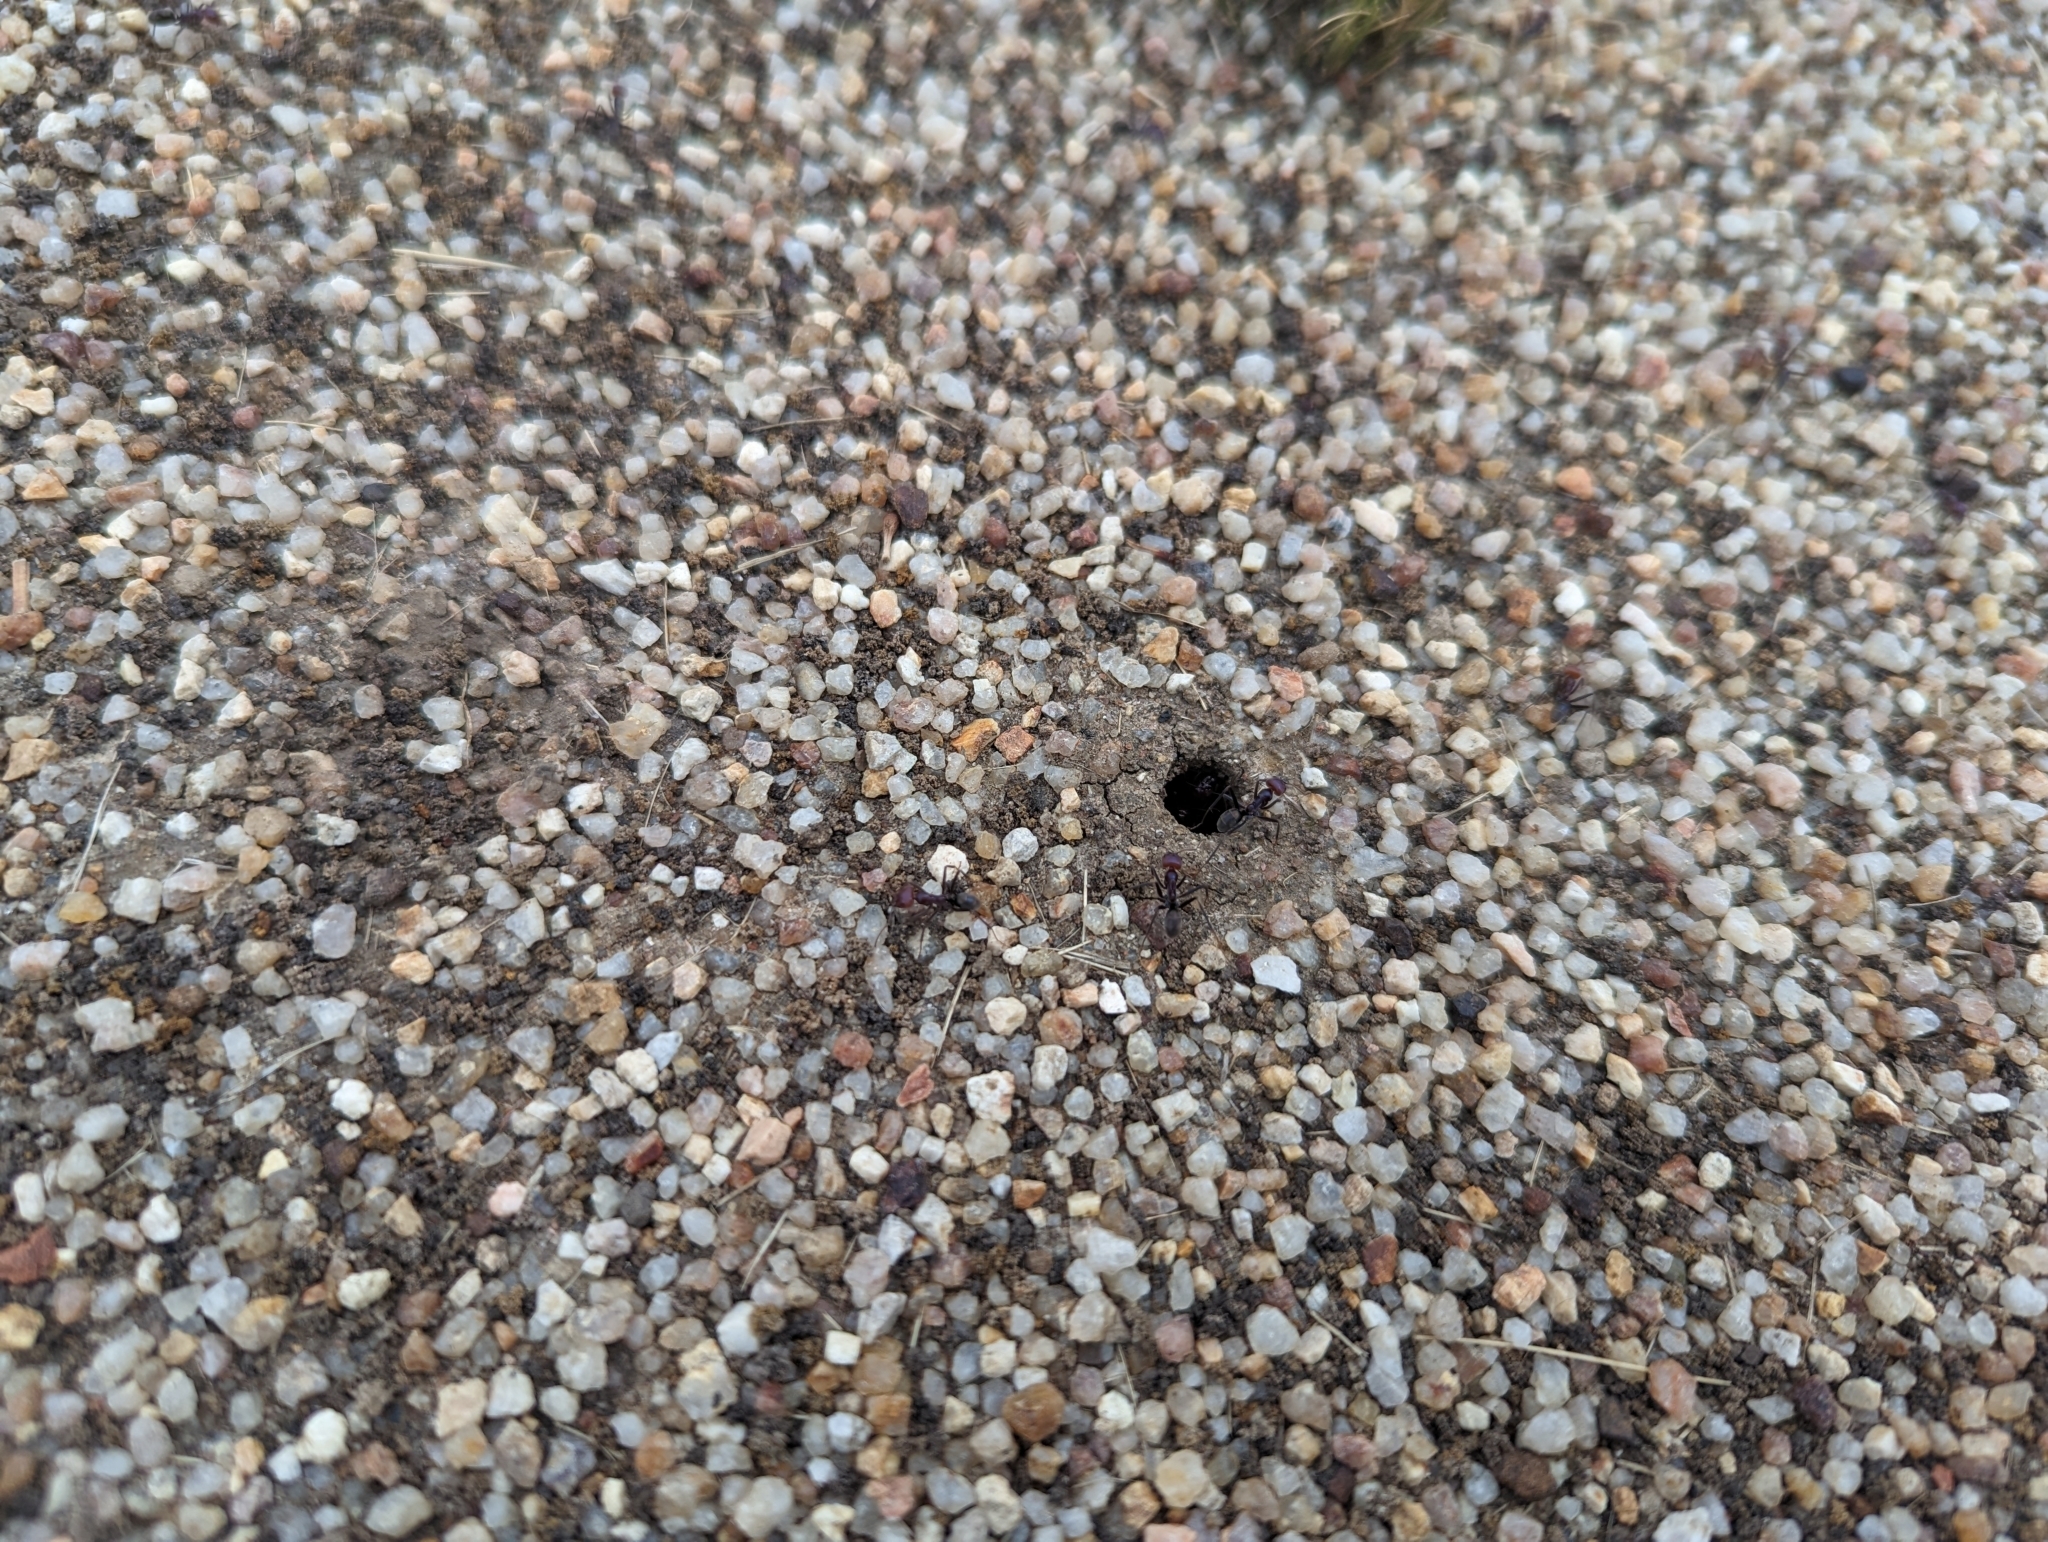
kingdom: Animalia
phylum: Arthropoda
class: Insecta
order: Hymenoptera
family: Formicidae
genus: Iridomyrmex
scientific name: Iridomyrmex purpureus
